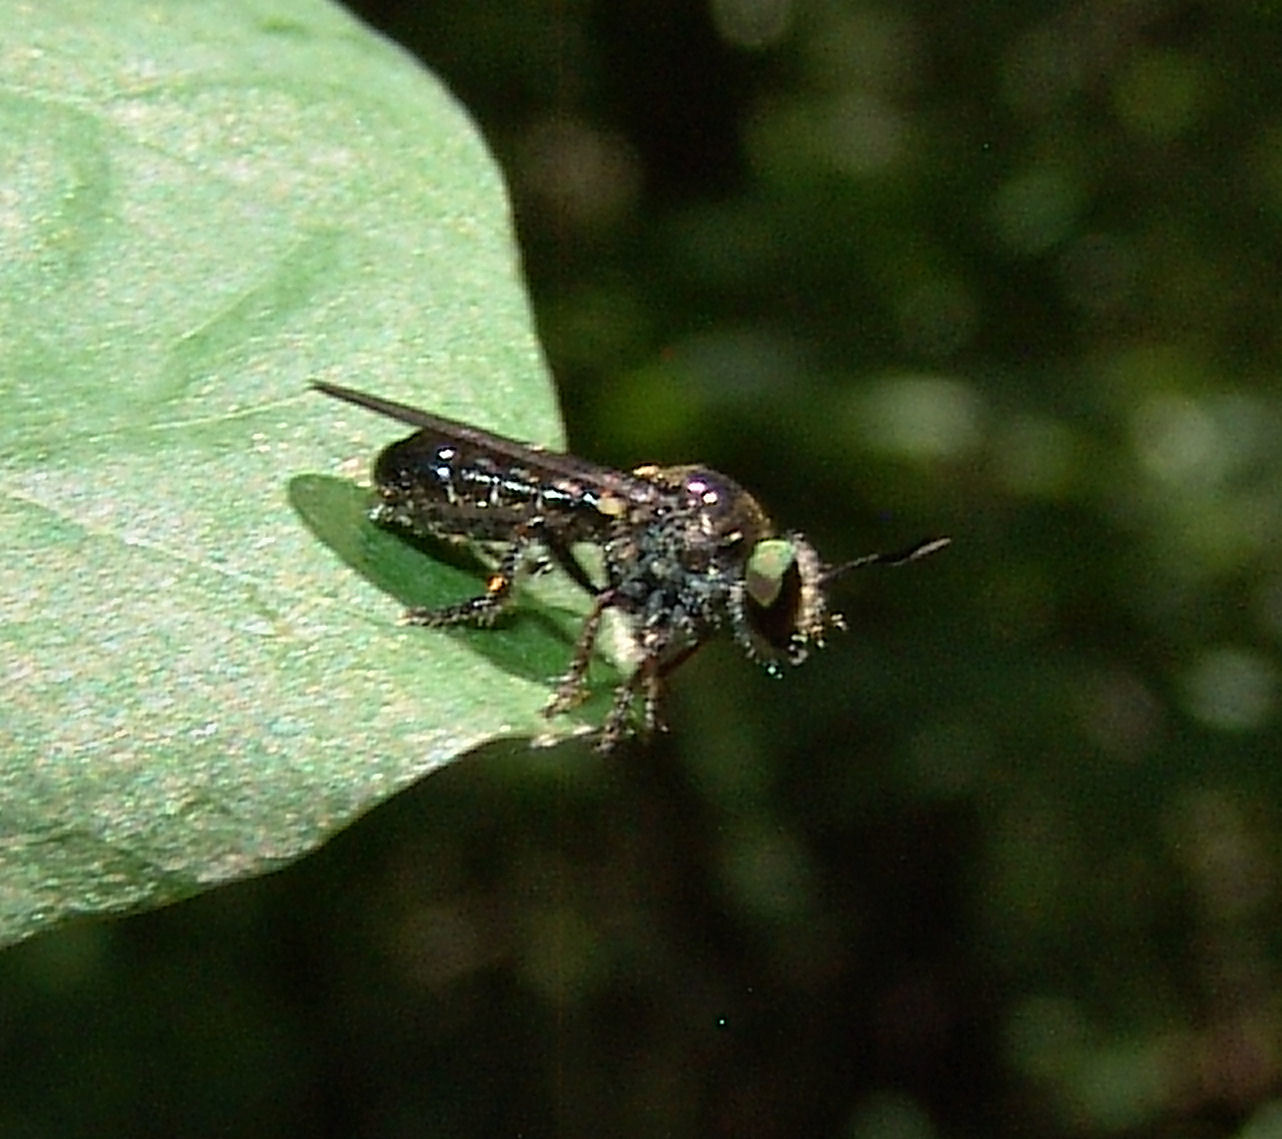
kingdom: Animalia
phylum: Arthropoda
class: Insecta
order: Diptera
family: Asilidae
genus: Cerotainia
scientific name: Cerotainia
